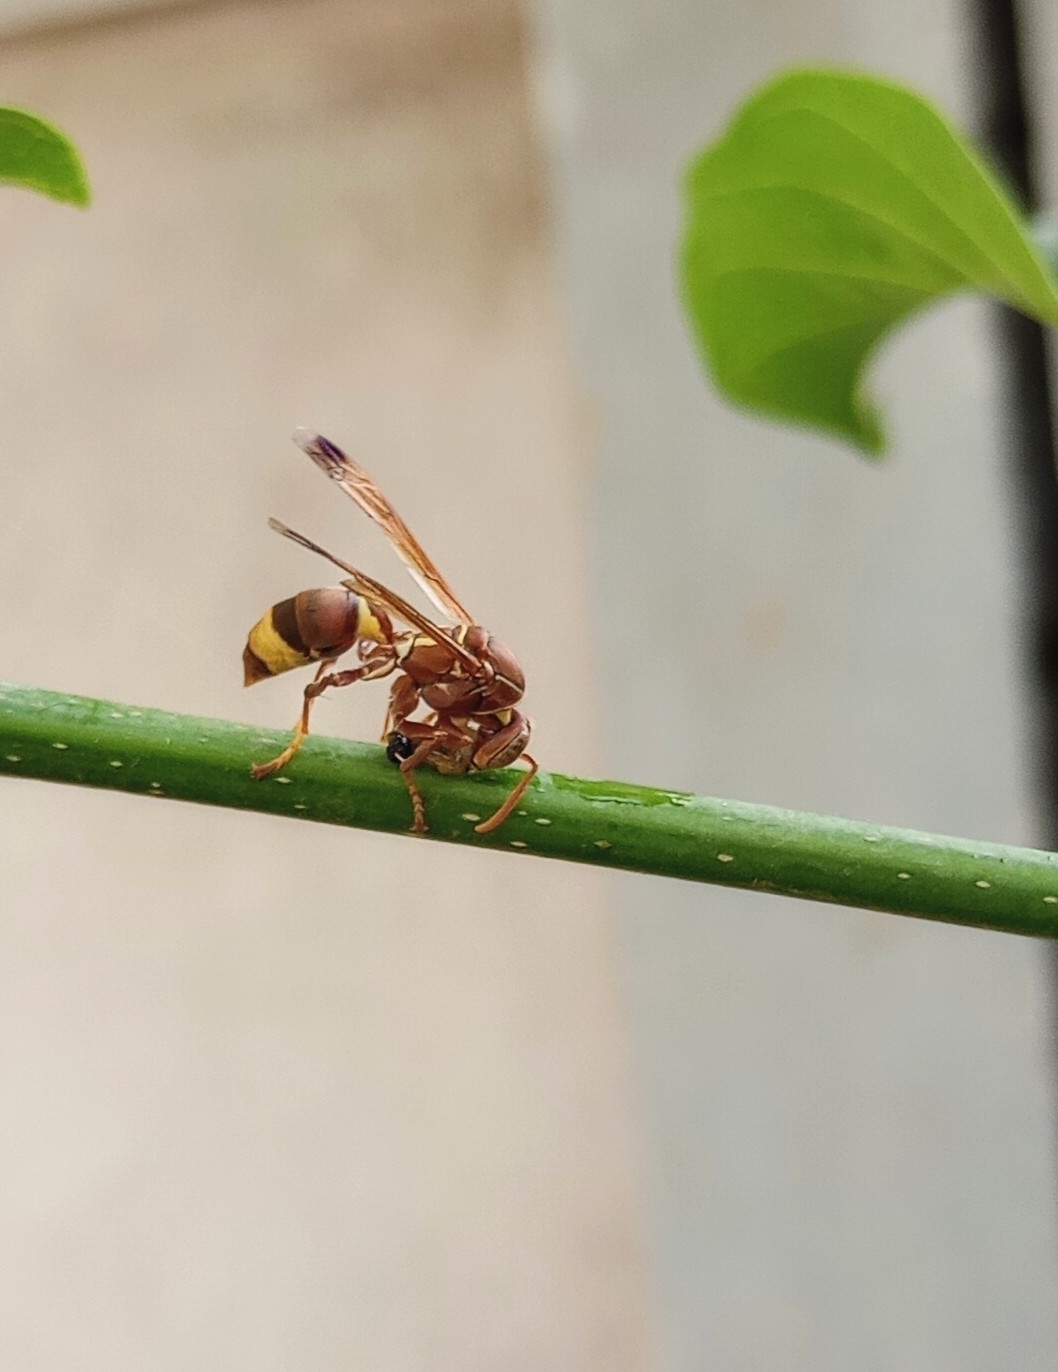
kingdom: Animalia
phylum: Arthropoda
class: Insecta
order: Hymenoptera
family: Eumenidae
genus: Polistes
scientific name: Polistes stigma
